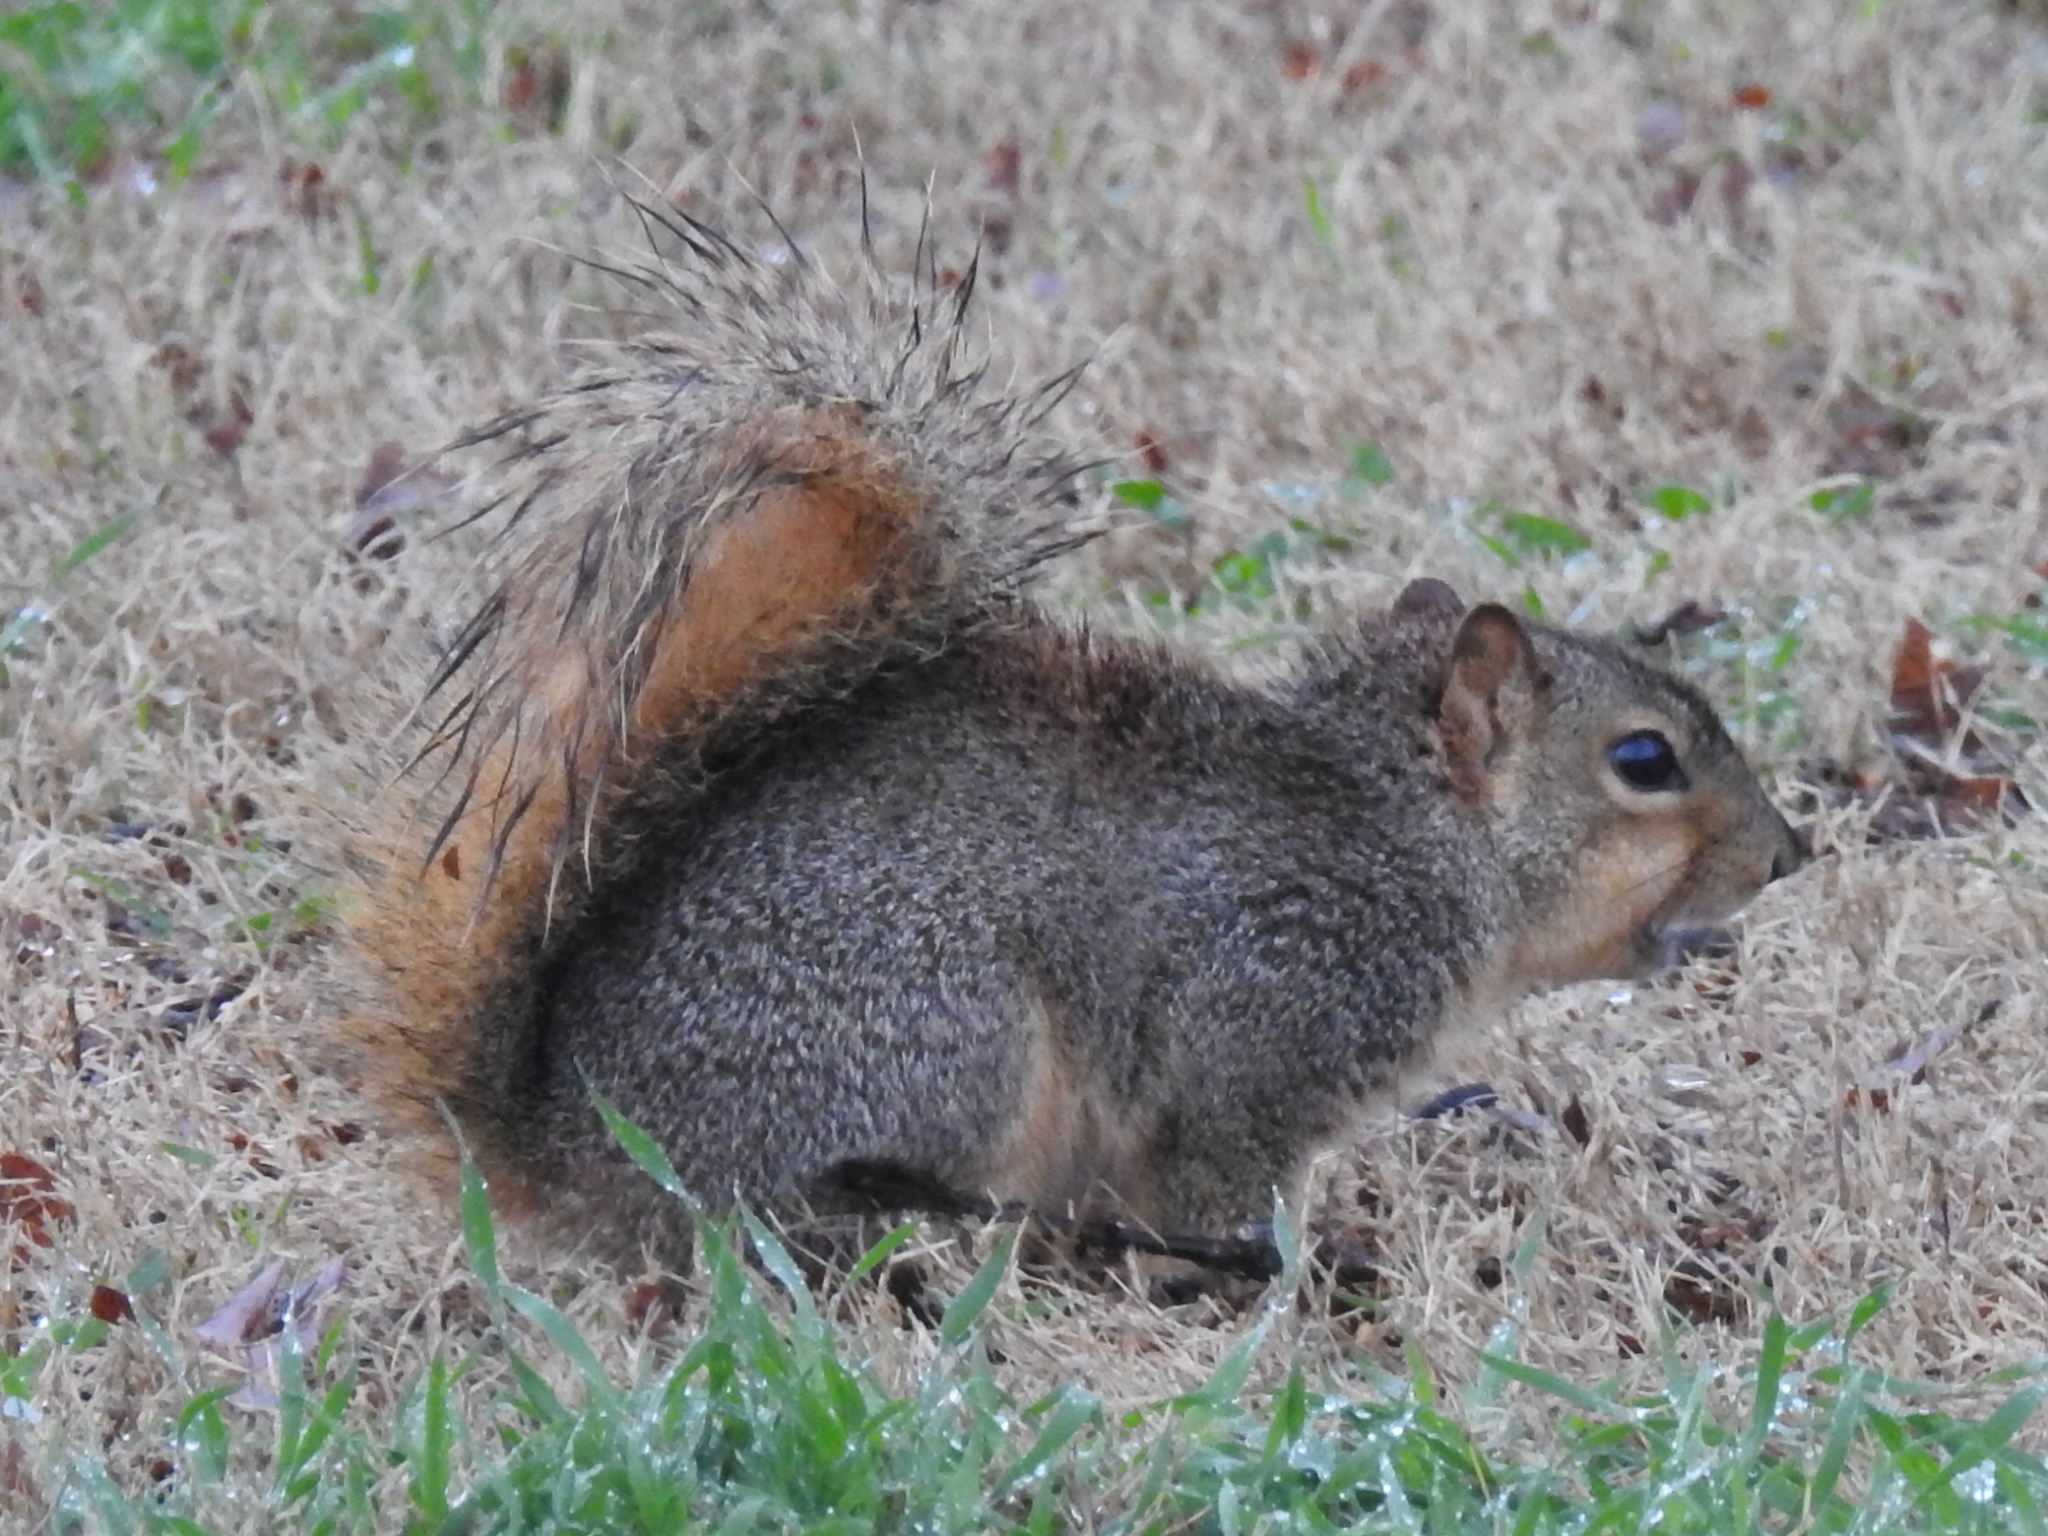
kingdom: Animalia
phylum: Chordata
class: Mammalia
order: Rodentia
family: Sciuridae
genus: Sciurus
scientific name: Sciurus niger
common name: Fox squirrel
